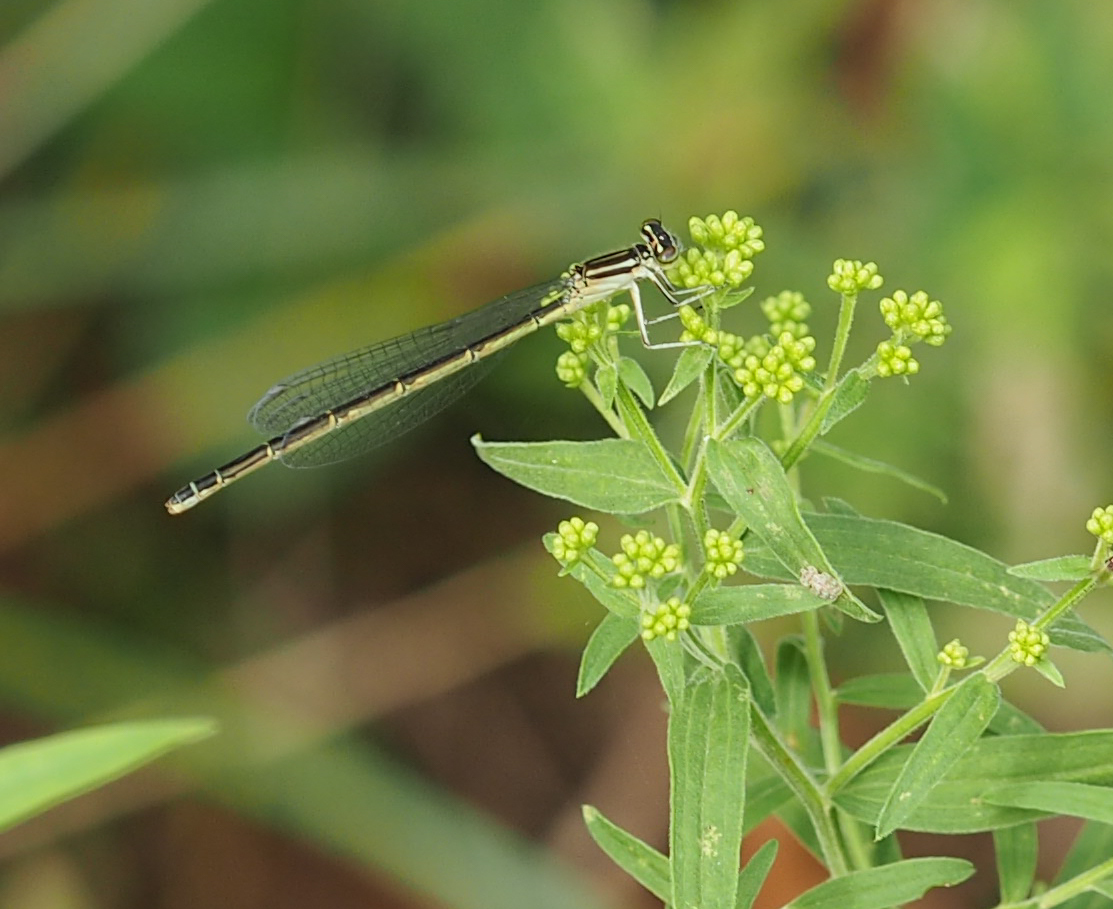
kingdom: Animalia
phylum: Arthropoda
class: Insecta
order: Odonata
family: Coenagrionidae
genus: Enallagma
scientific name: Enallagma durum
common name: Big bluet
